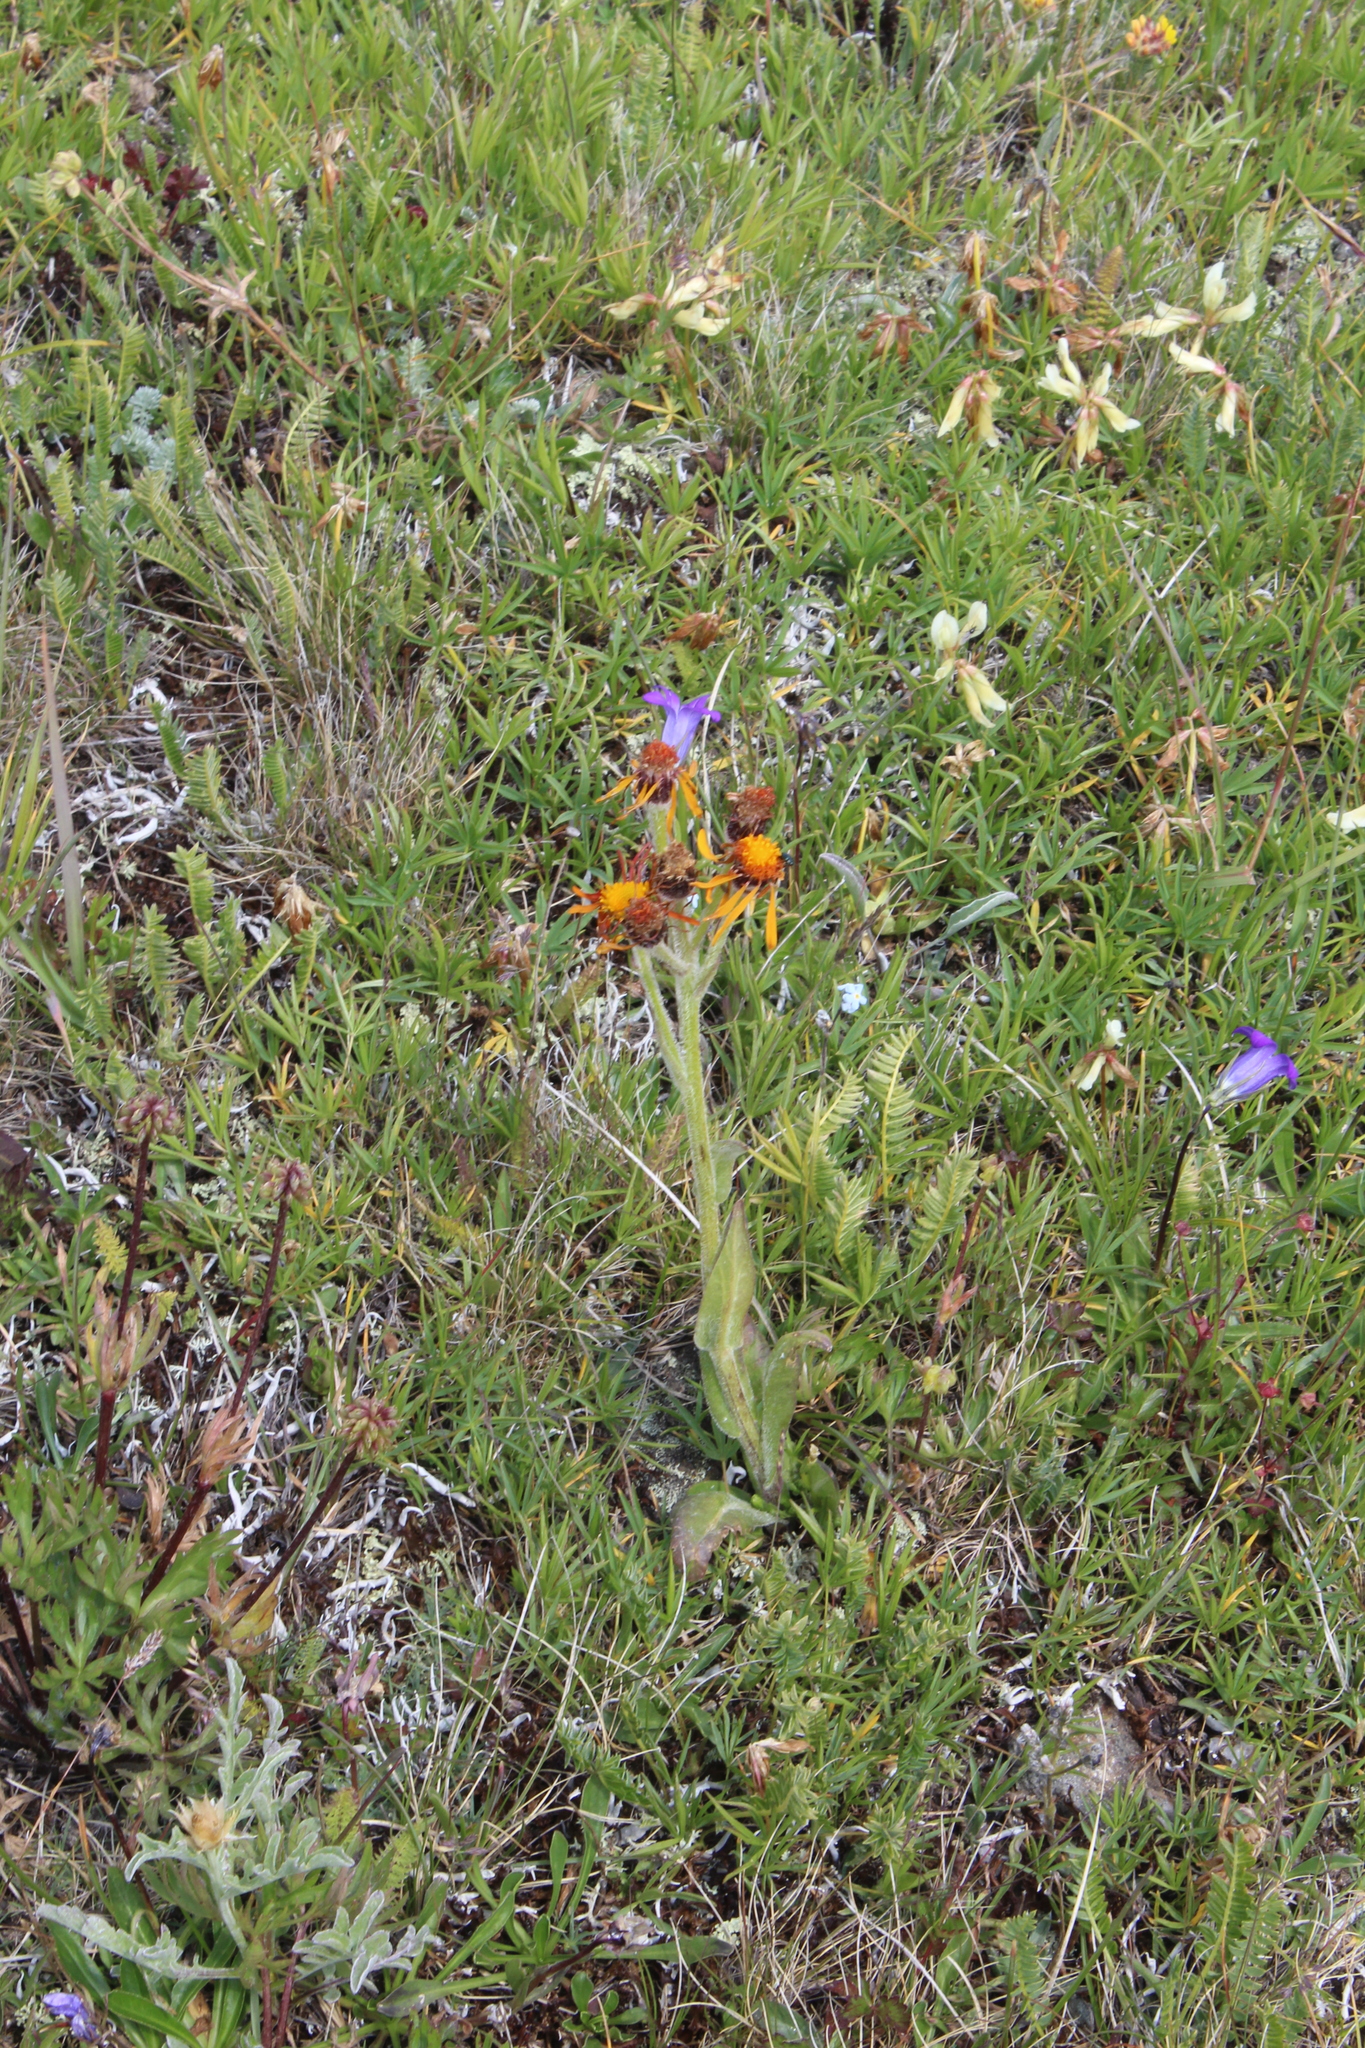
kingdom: Plantae
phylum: Tracheophyta
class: Magnoliopsida
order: Asterales
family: Asteraceae
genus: Tephroseris
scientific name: Tephroseris integrifolia
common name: Field fleawort
